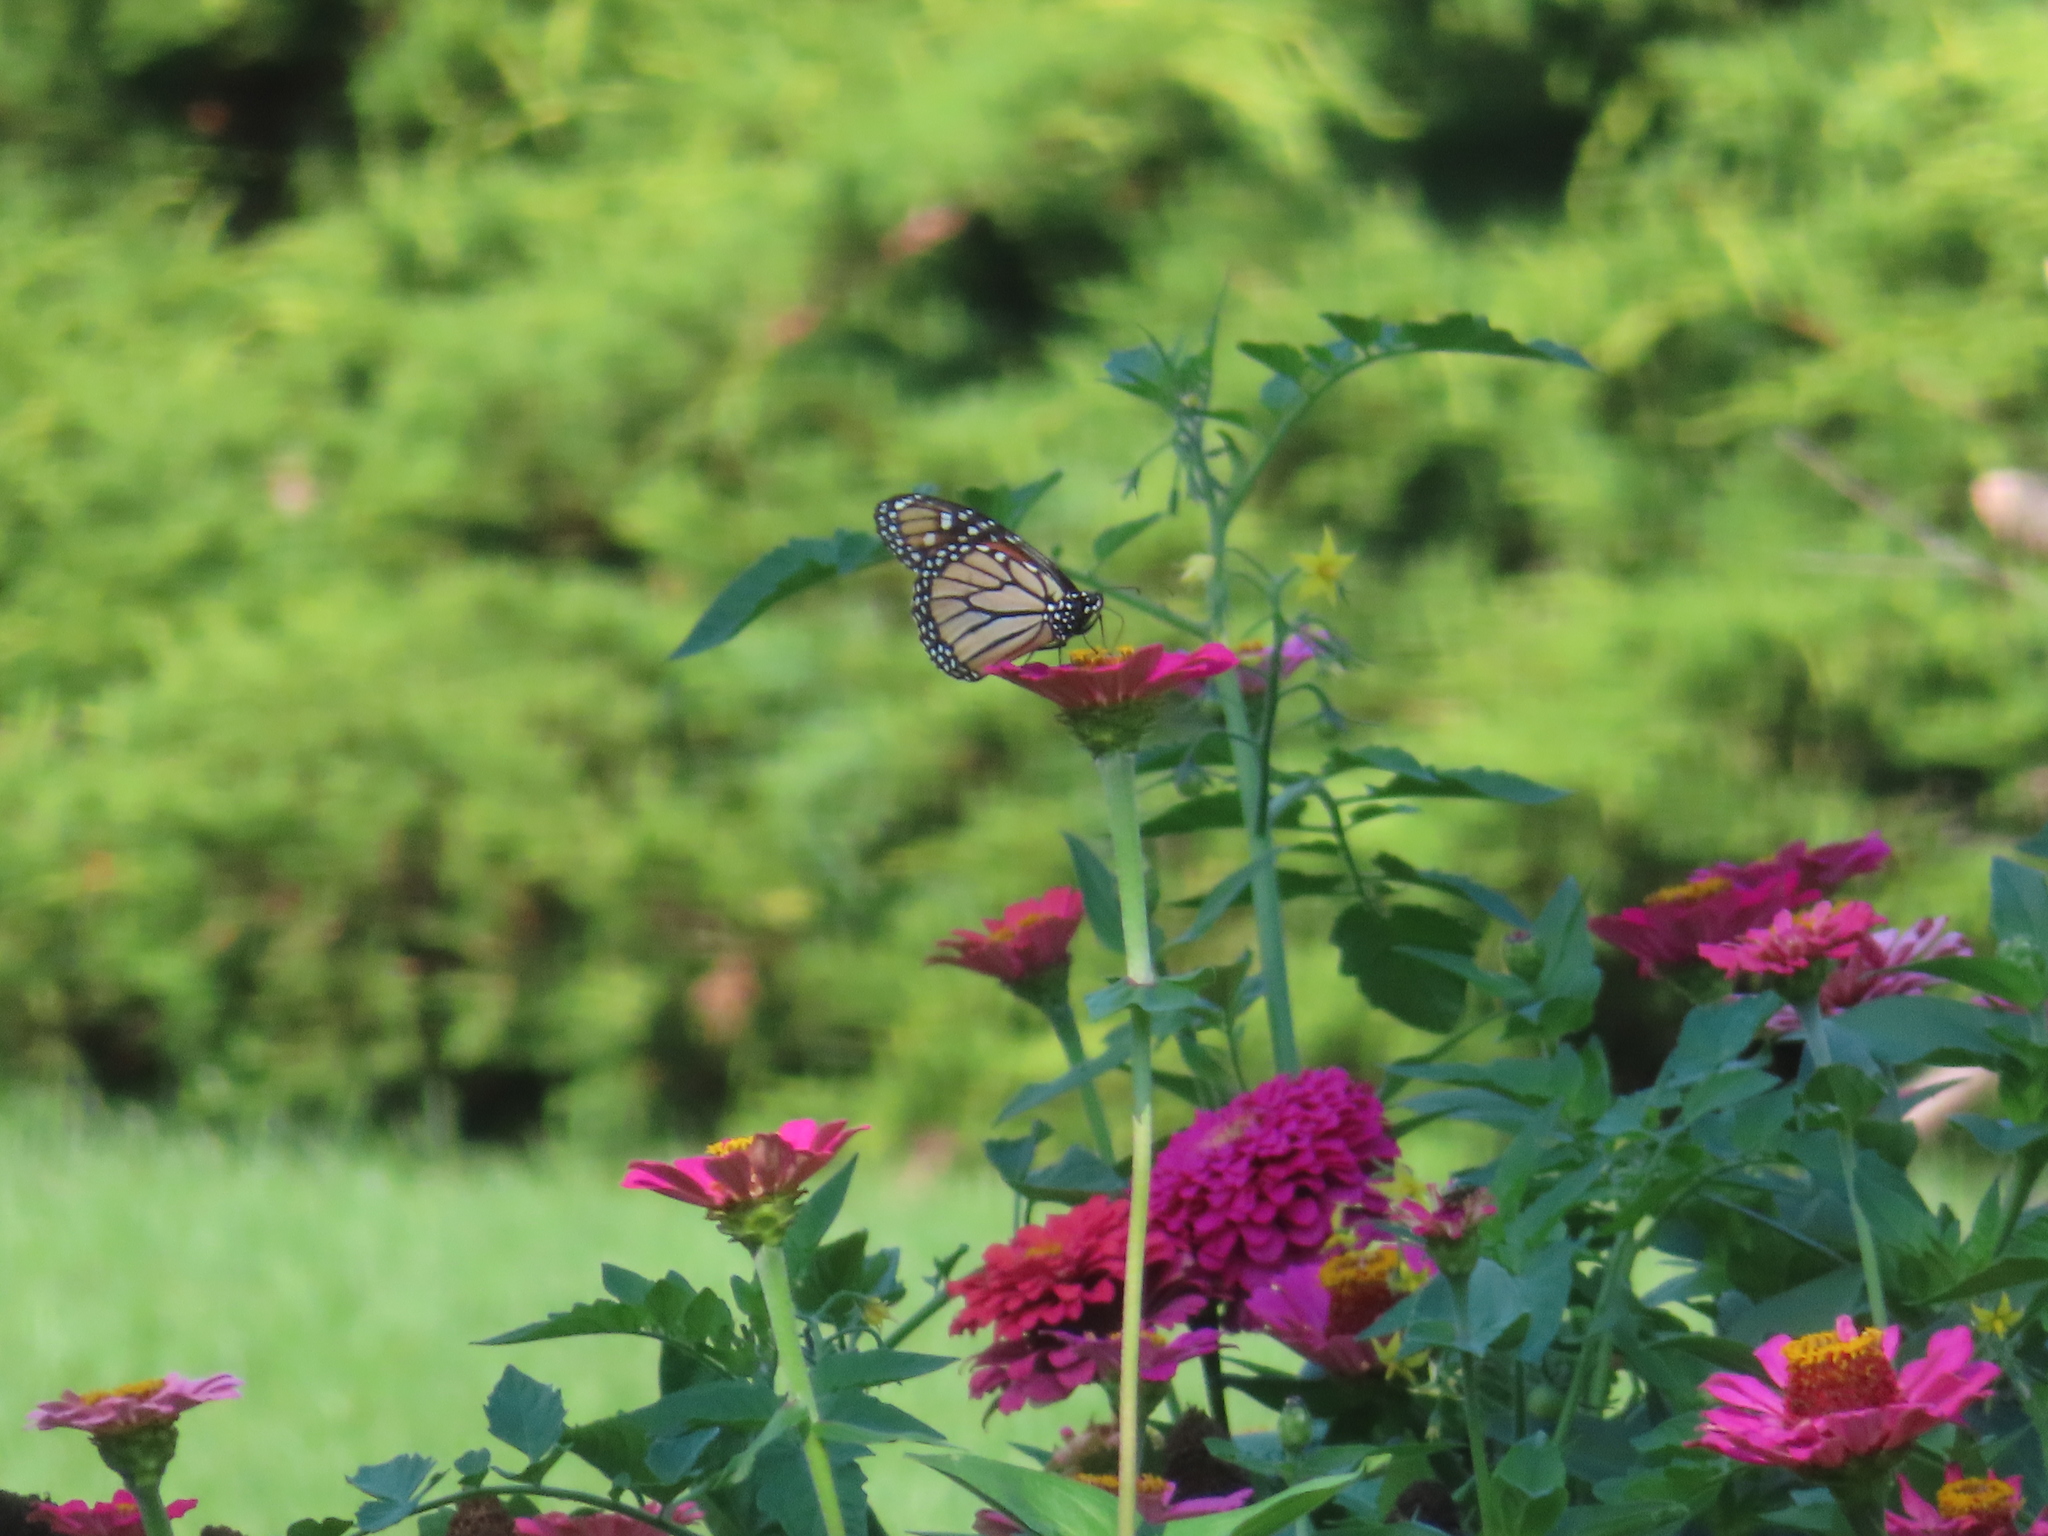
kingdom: Animalia
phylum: Arthropoda
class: Insecta
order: Lepidoptera
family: Nymphalidae
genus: Danaus
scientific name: Danaus plexippus
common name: Monarch
